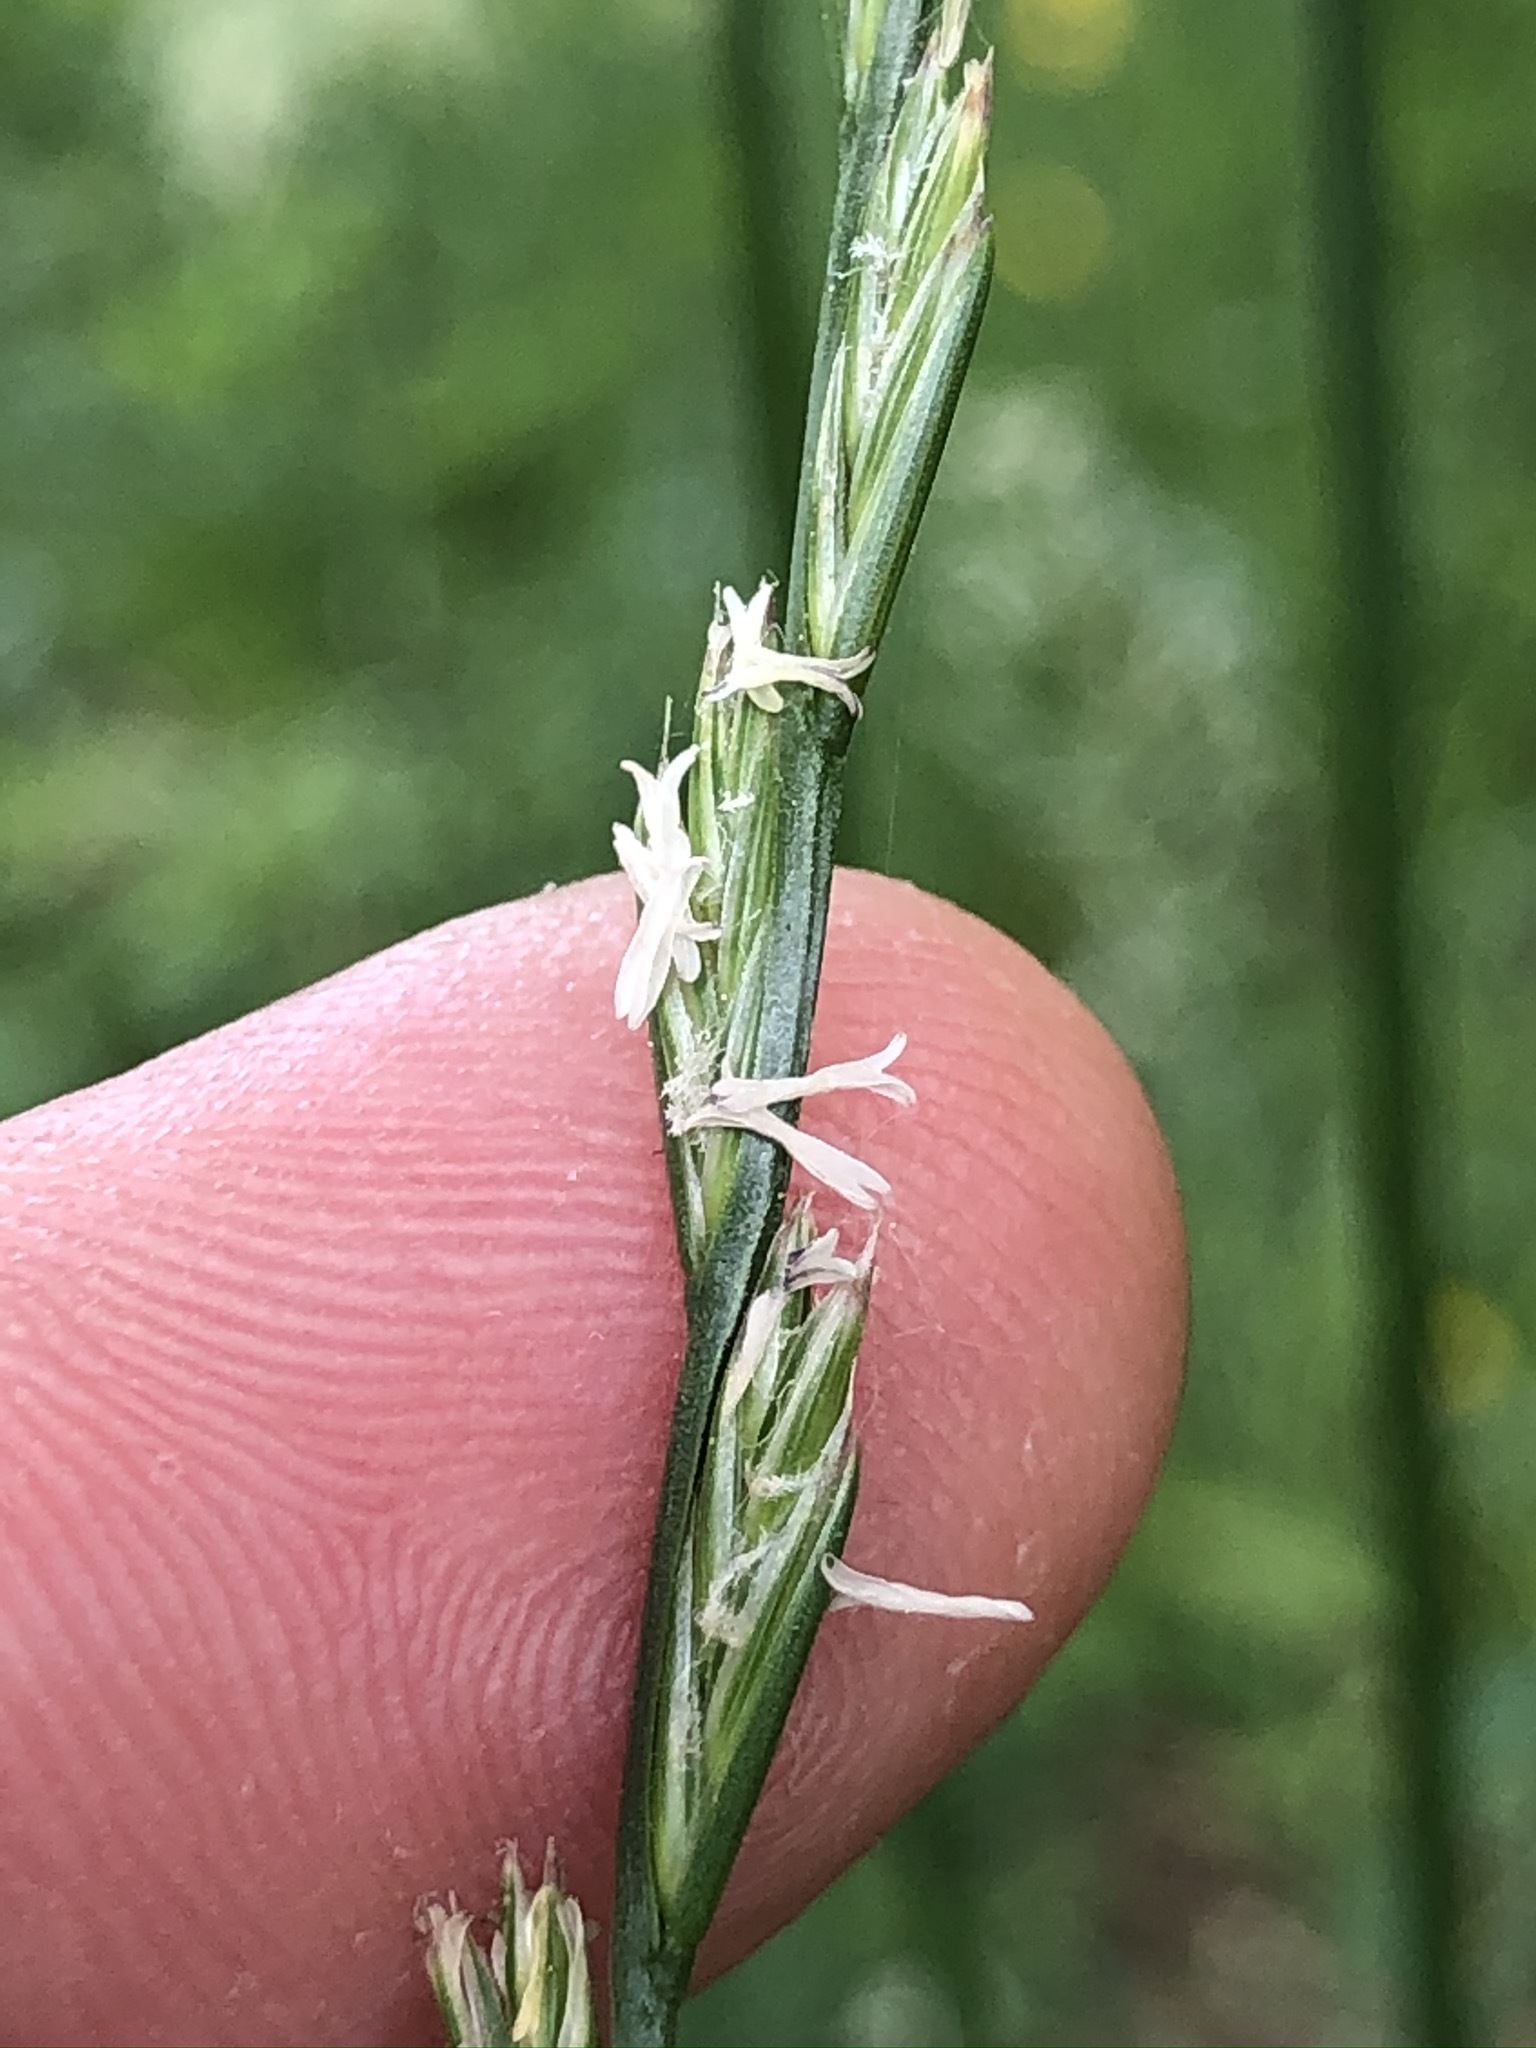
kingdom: Plantae
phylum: Tracheophyta
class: Liliopsida
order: Poales
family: Poaceae
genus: Lolium
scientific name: Lolium perenne
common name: Perennial ryegrass
